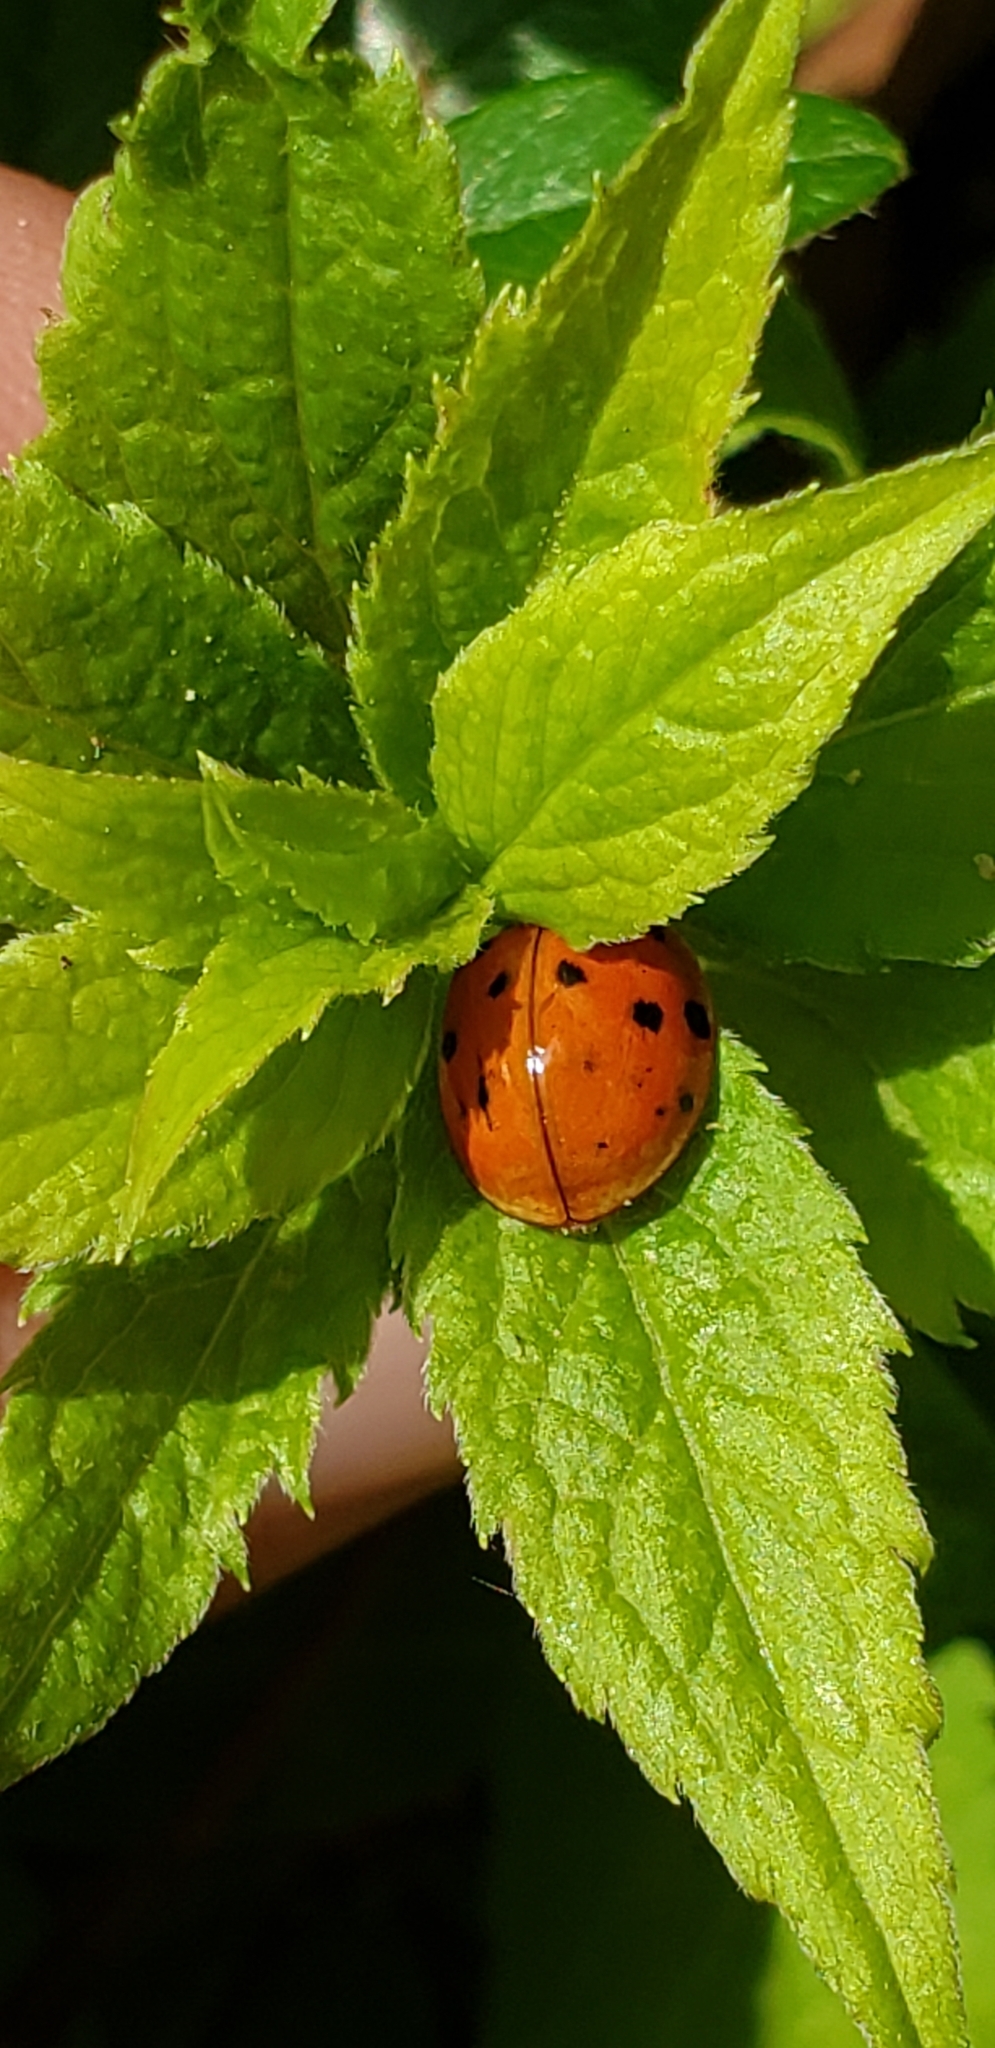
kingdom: Animalia
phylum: Arthropoda
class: Insecta
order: Coleoptera
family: Coccinellidae
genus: Harmonia
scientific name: Harmonia axyridis
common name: Harlequin ladybird
